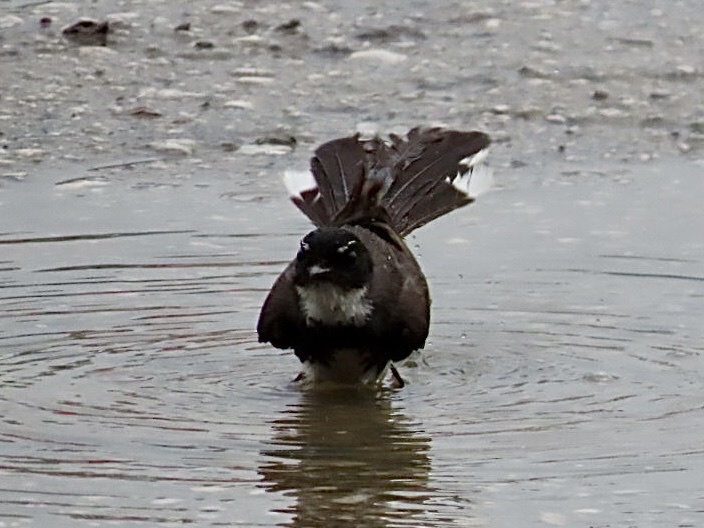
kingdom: Animalia
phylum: Chordata
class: Aves
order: Passeriformes
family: Rhipiduridae
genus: Rhipidura
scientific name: Rhipidura javanica
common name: Pied fantail
